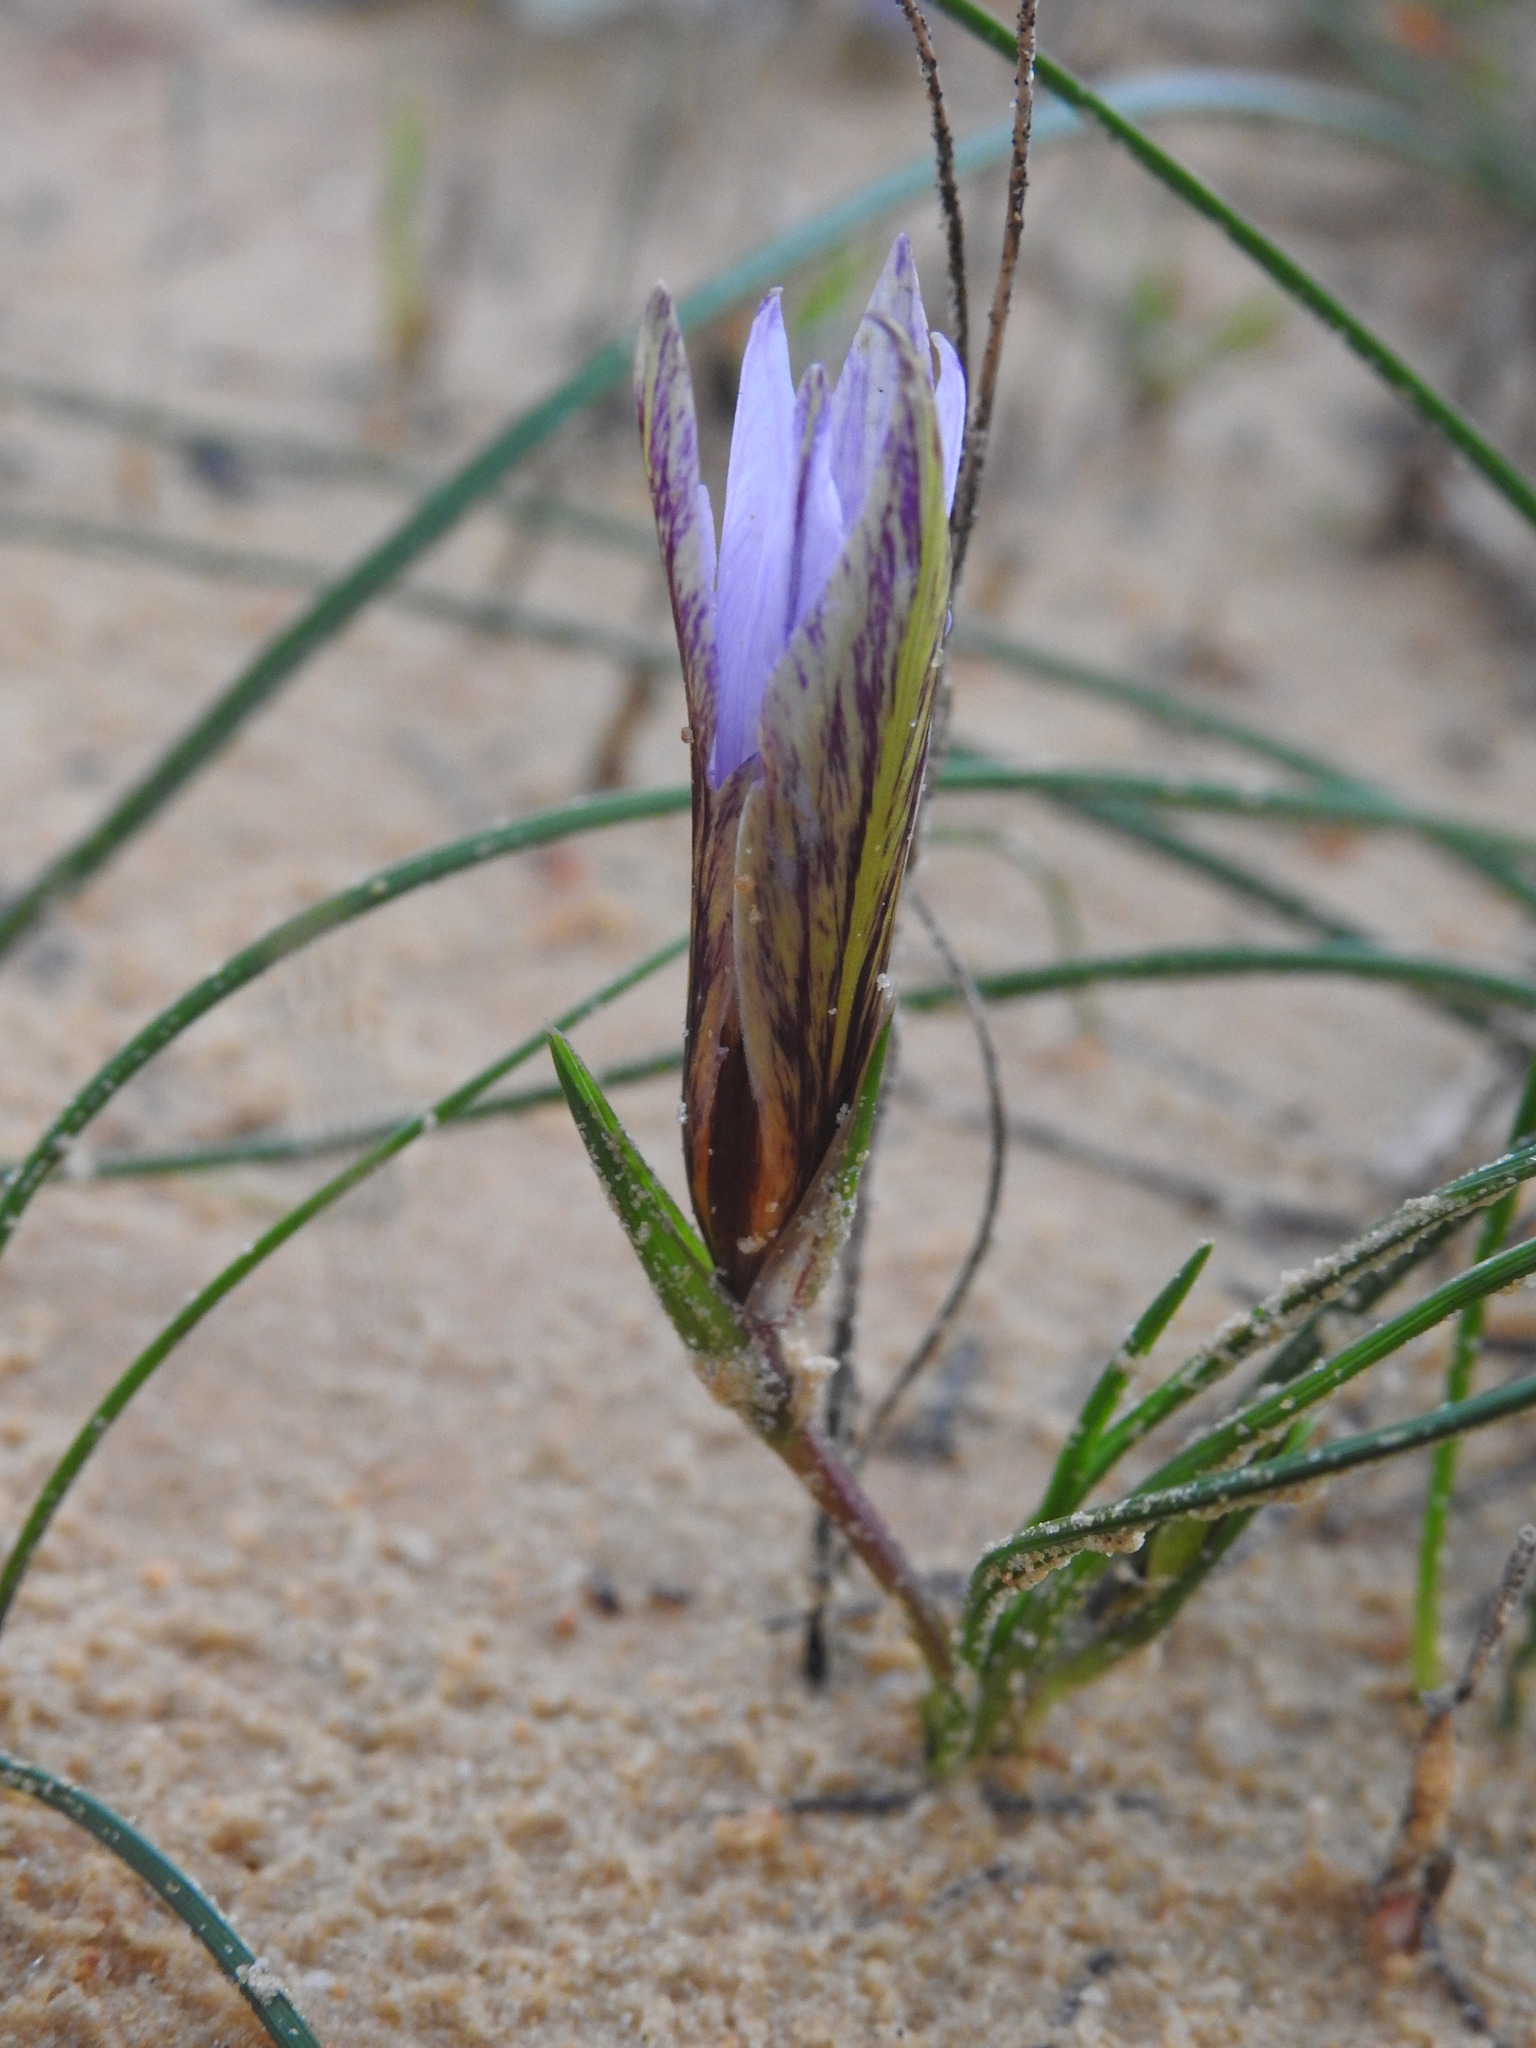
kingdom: Plantae
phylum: Tracheophyta
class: Liliopsida
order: Asparagales
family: Iridaceae
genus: Romulea
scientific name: Romulea bulbocodium
